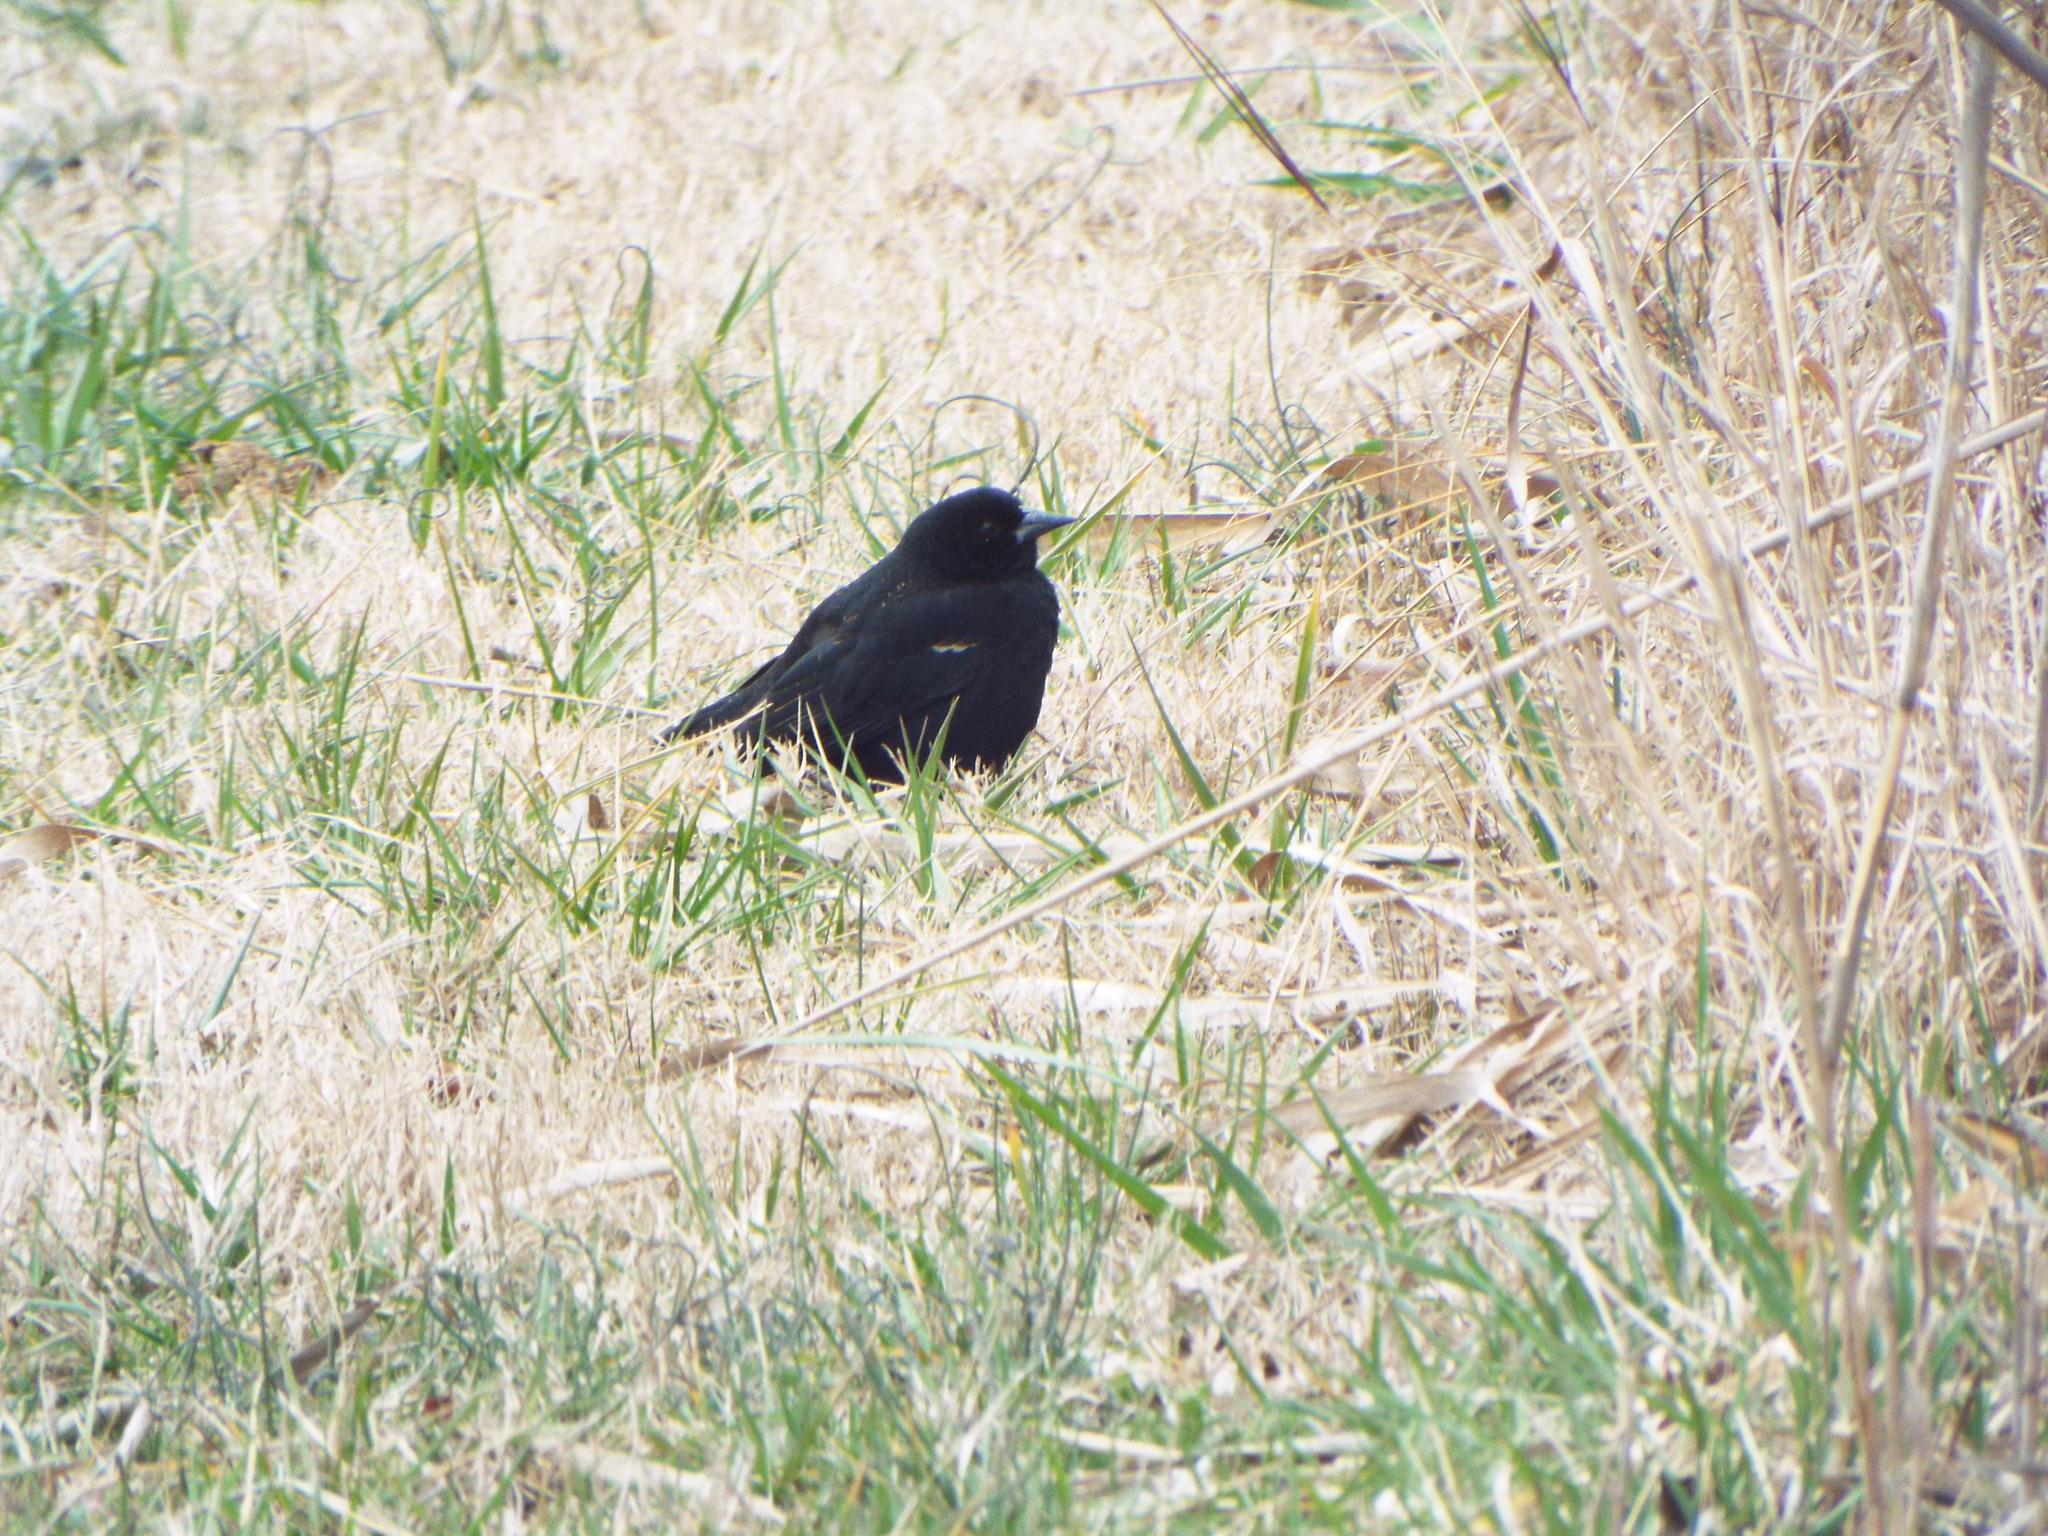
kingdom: Animalia
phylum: Chordata
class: Aves
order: Passeriformes
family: Icteridae
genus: Agelaius
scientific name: Agelaius phoeniceus
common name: Red-winged blackbird
